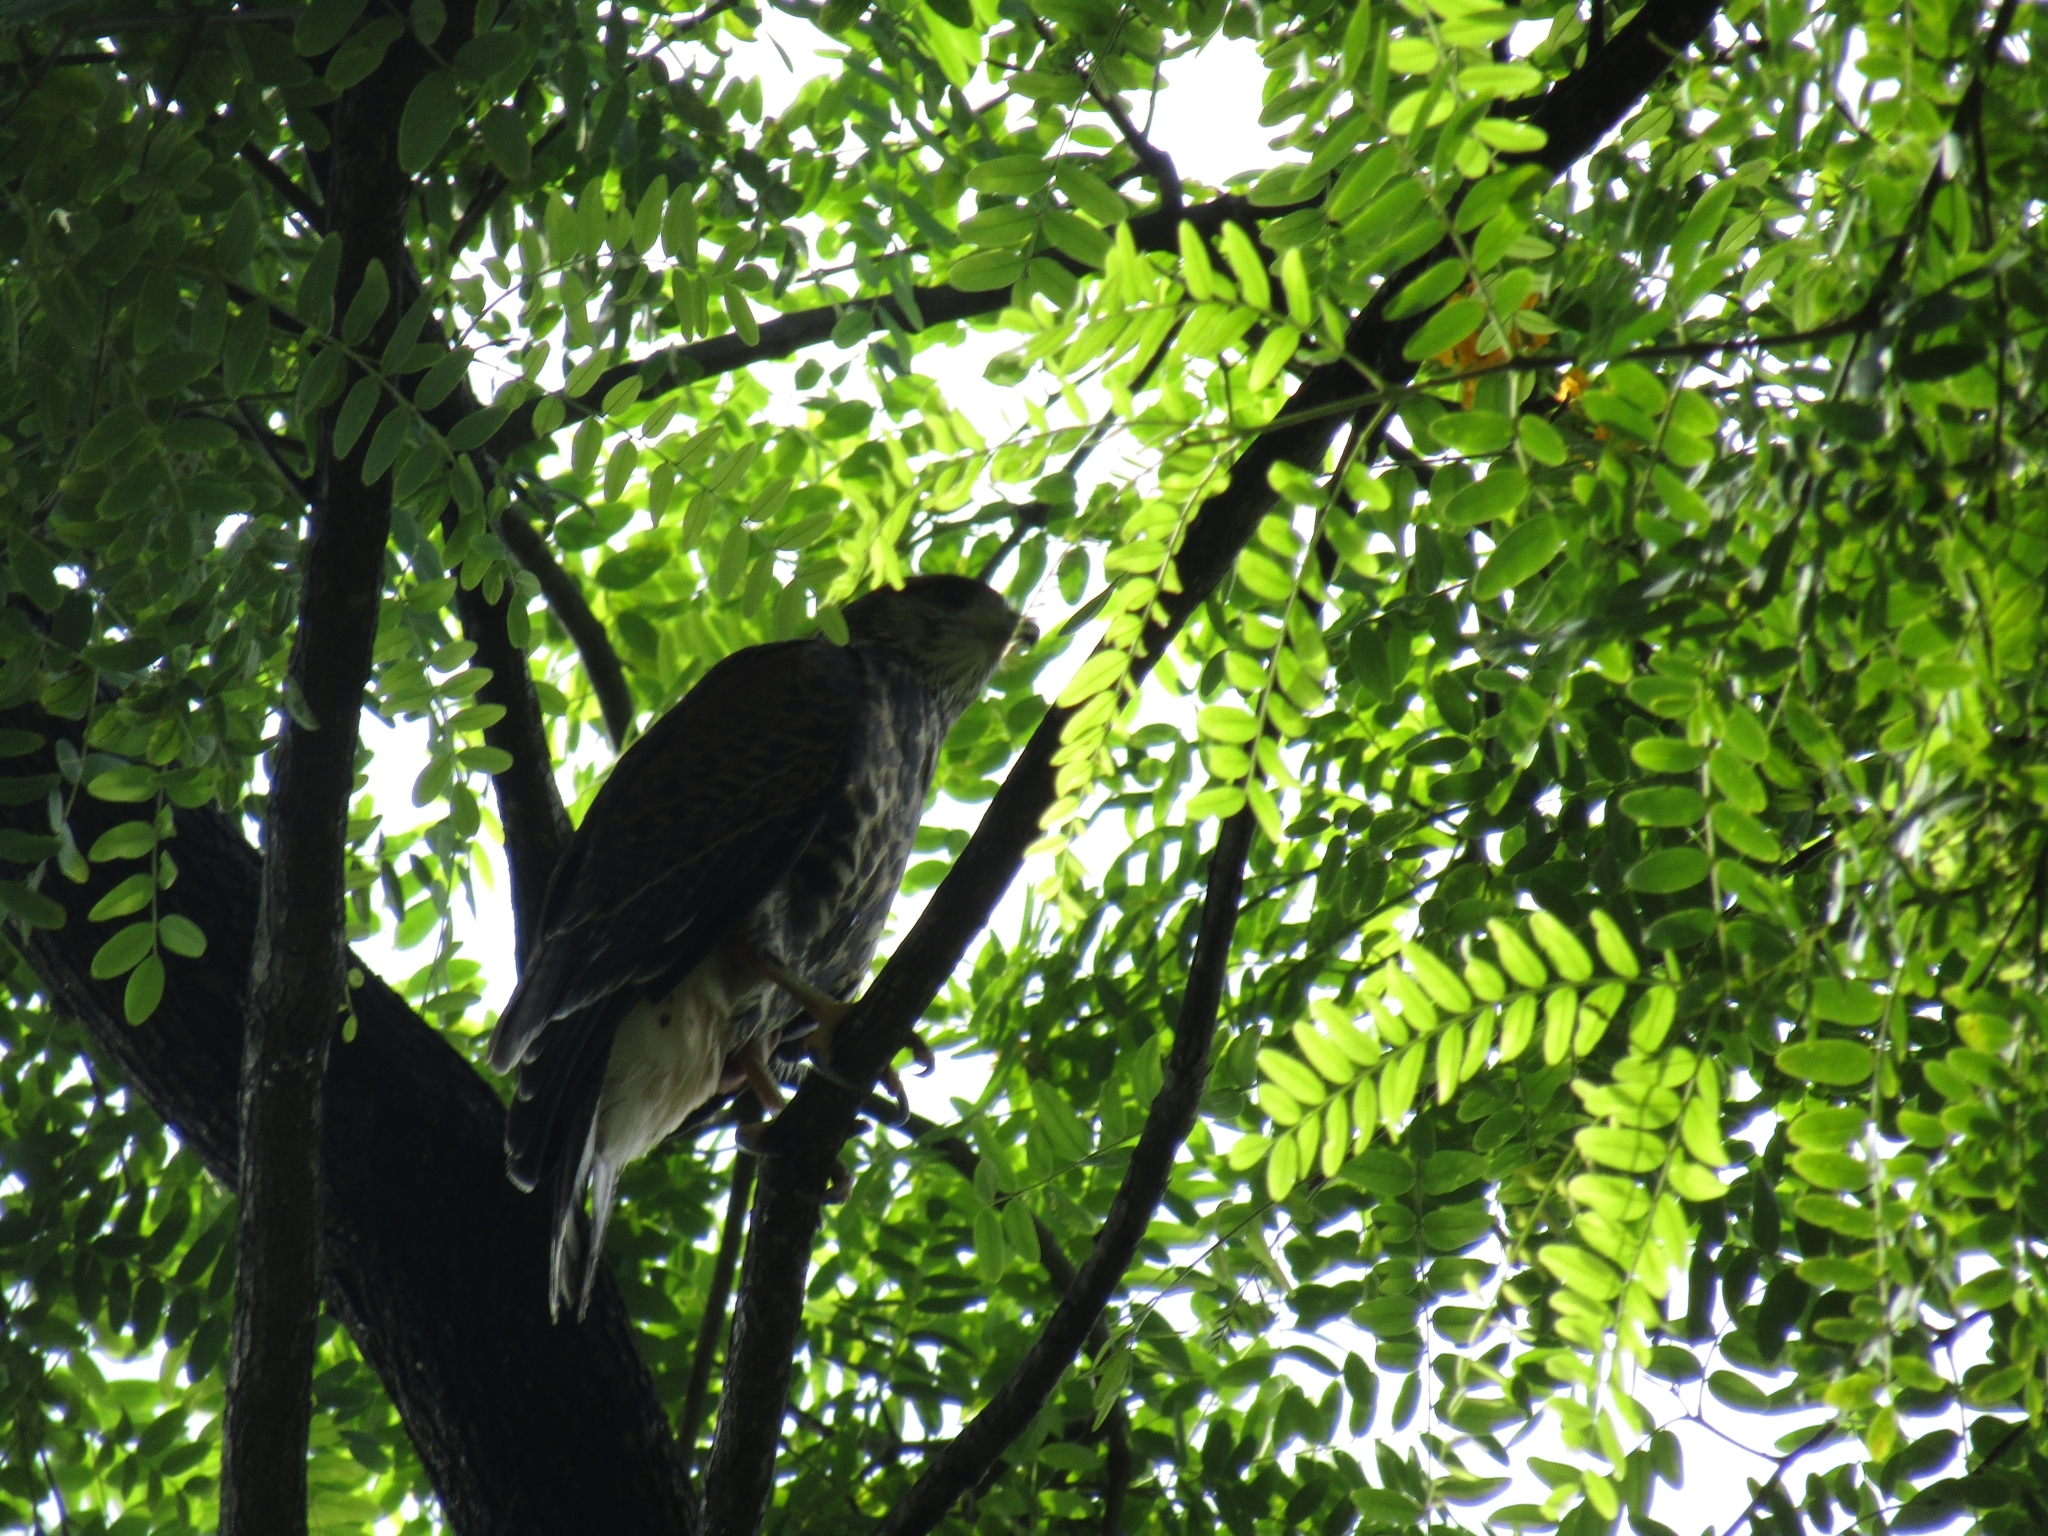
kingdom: Animalia
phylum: Chordata
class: Aves
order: Accipitriformes
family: Accipitridae
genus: Parabuteo
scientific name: Parabuteo unicinctus
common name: Harris's hawk
